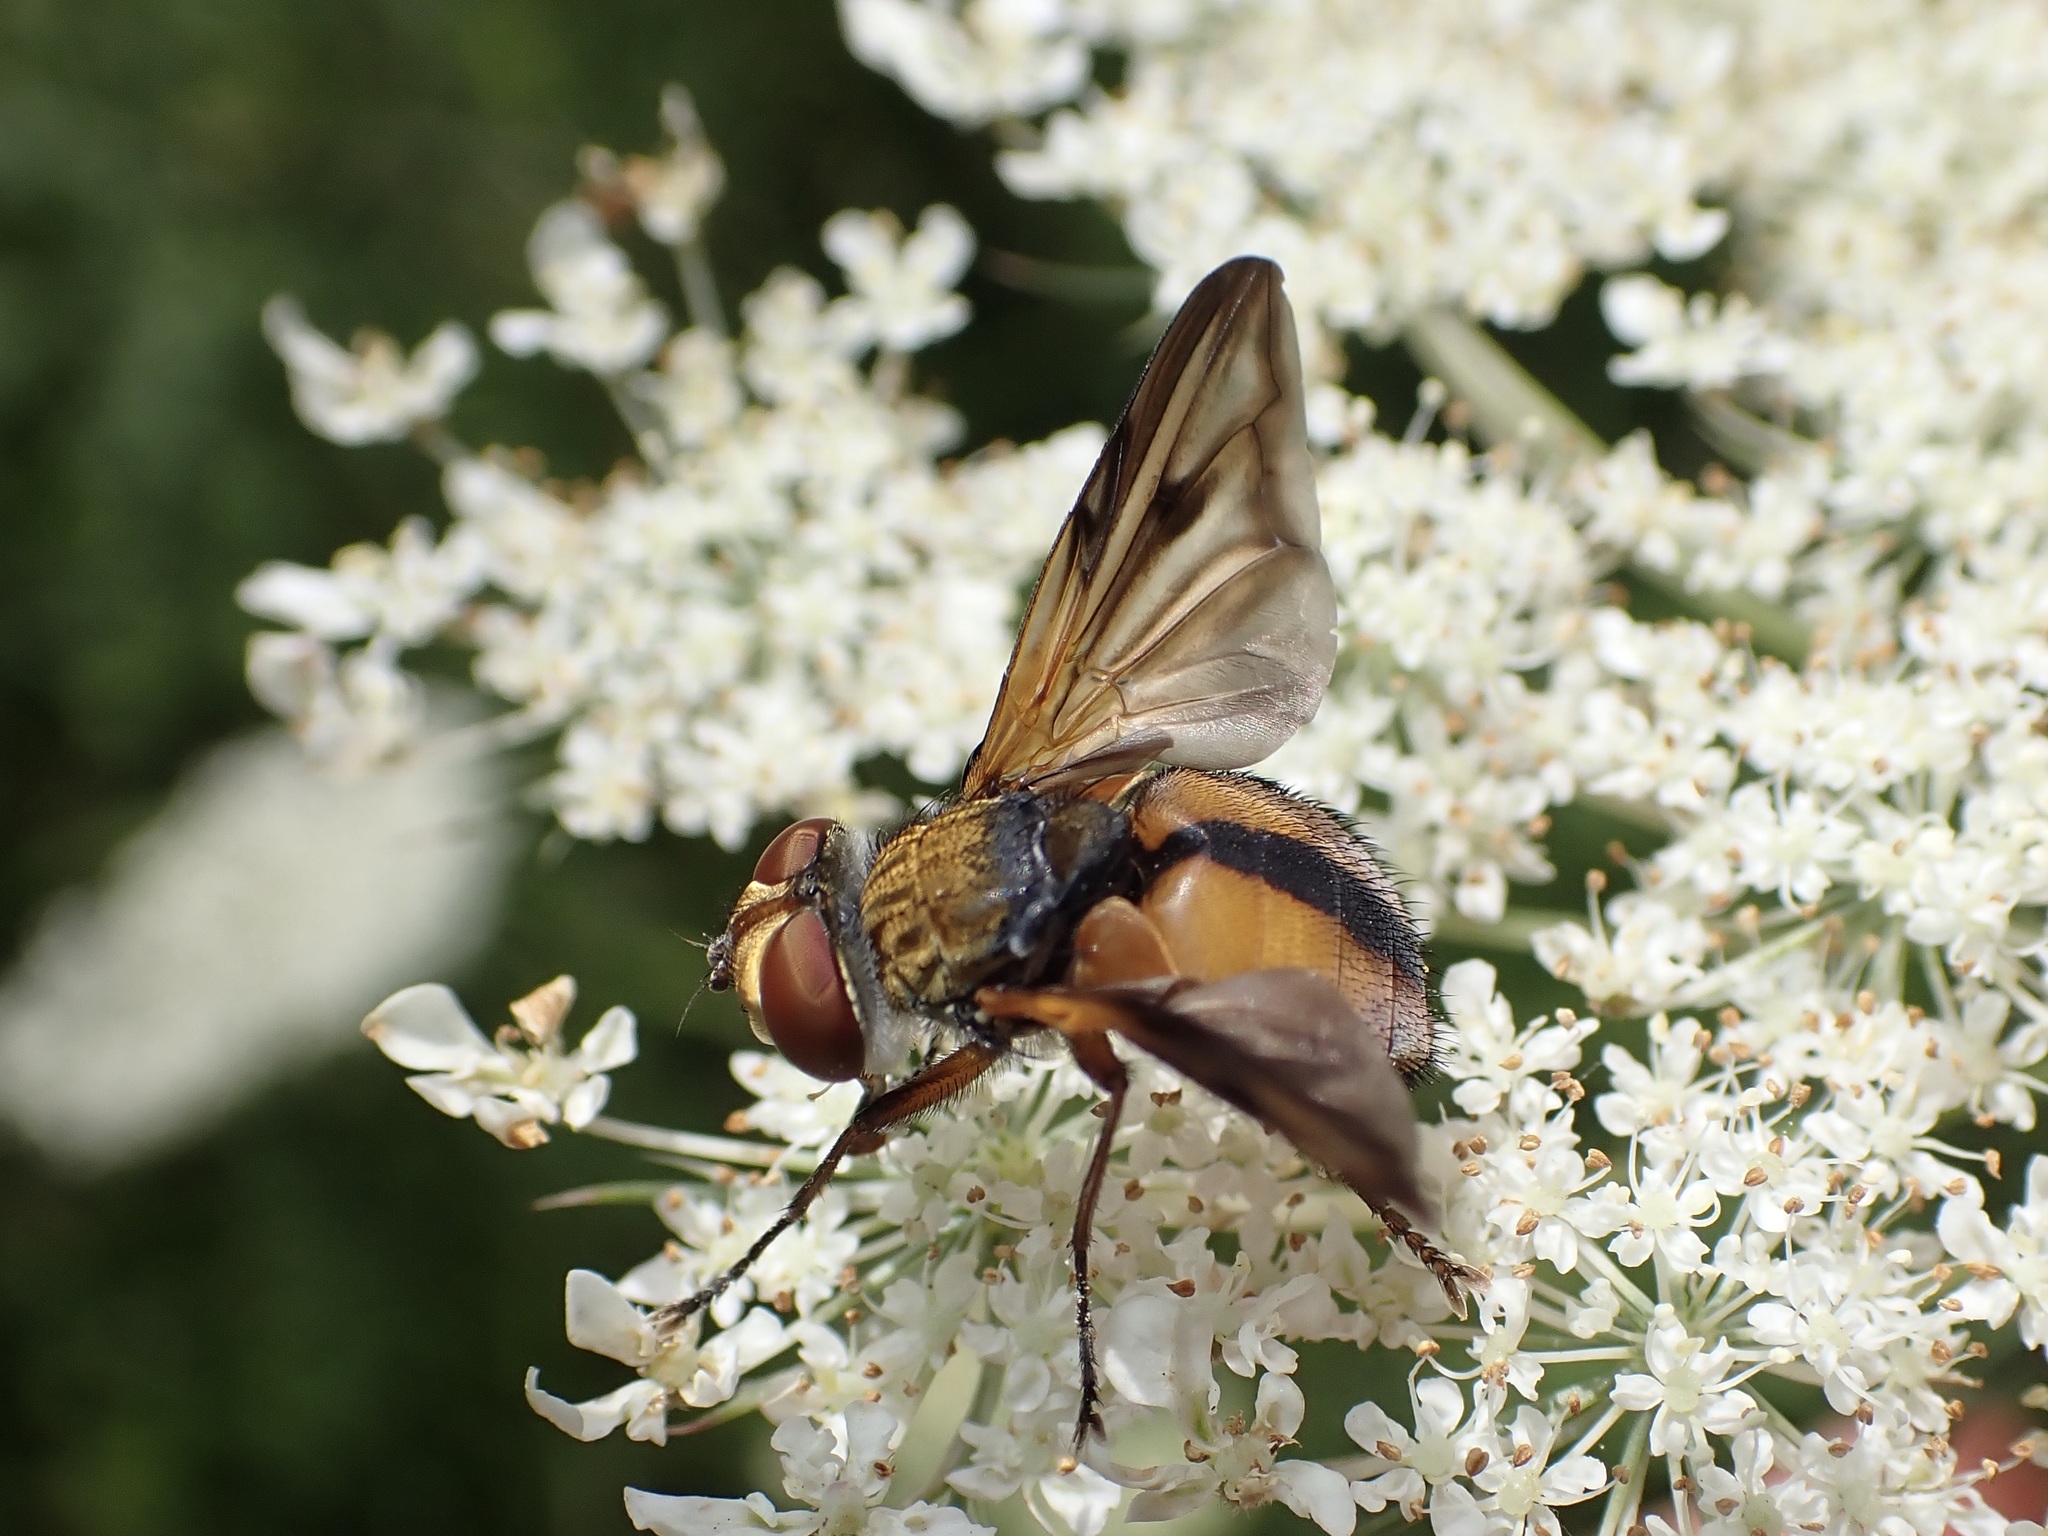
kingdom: Animalia
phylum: Arthropoda
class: Insecta
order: Diptera
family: Tachinidae
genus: Ectophasia
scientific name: Ectophasia crassipennis
